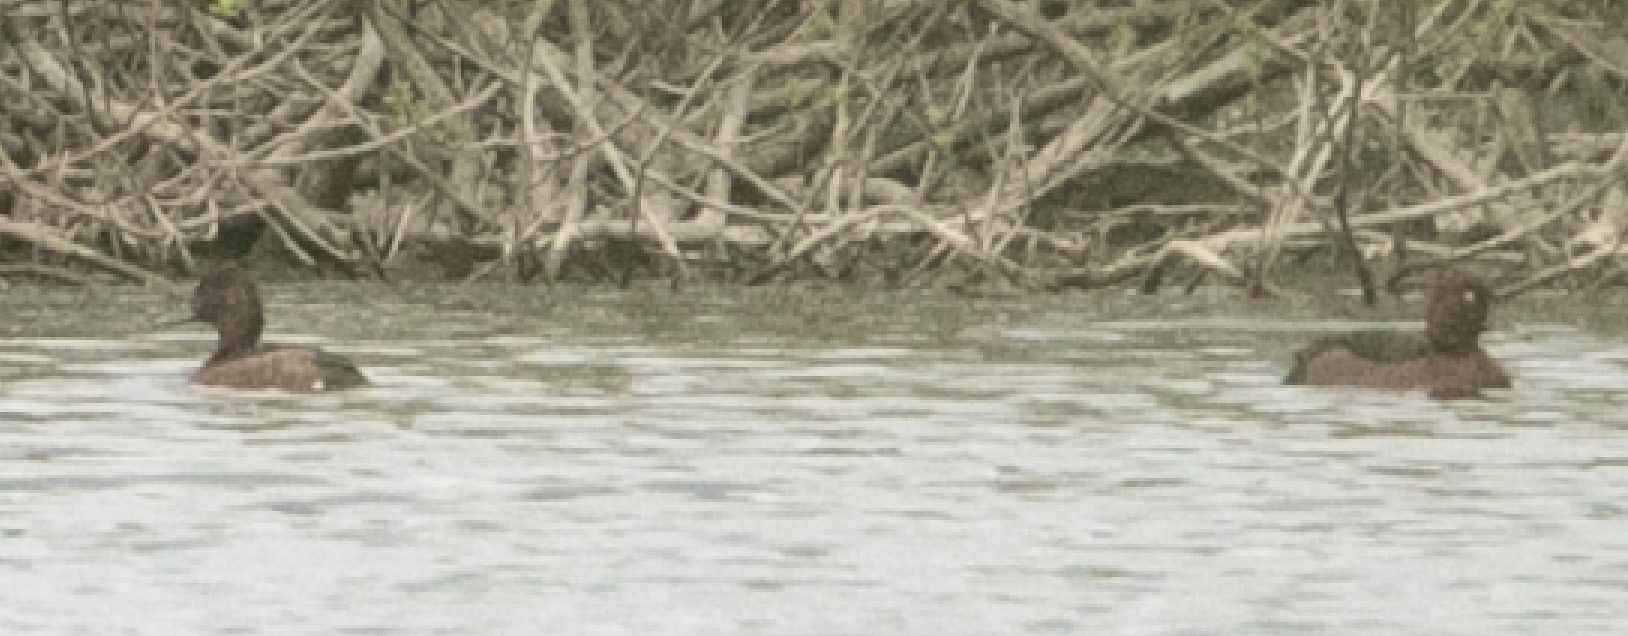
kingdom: Animalia
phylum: Chordata
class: Aves
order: Anseriformes
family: Anatidae
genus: Aythya
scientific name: Aythya nyroca
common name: Ferruginous duck
